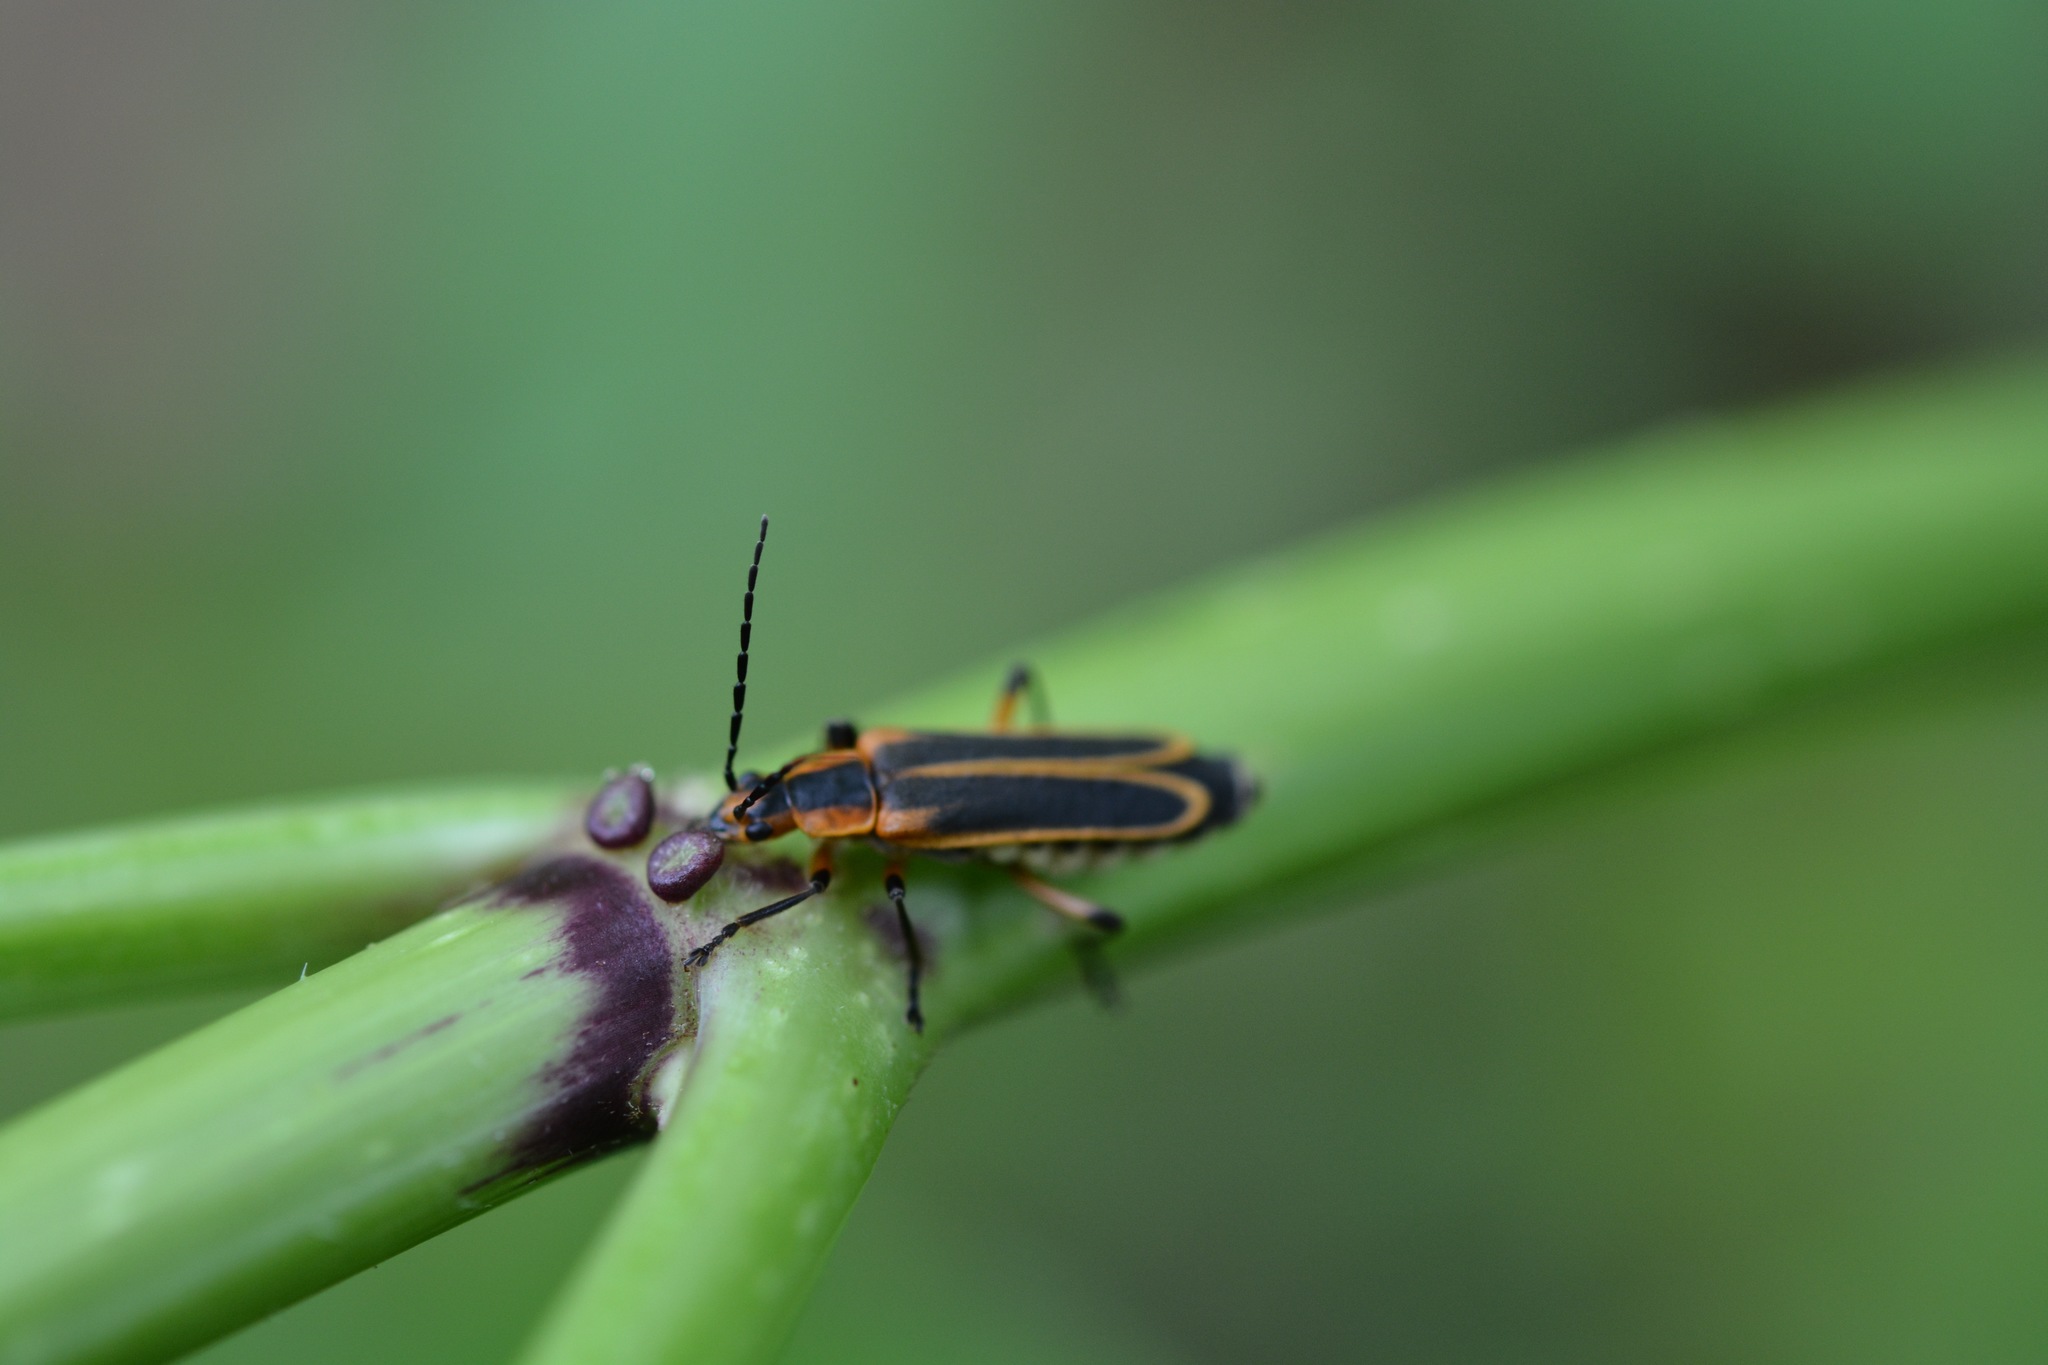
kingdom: Animalia
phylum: Arthropoda
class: Insecta
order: Coleoptera
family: Cantharidae
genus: Chauliognathus
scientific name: Chauliognathus marginatus
